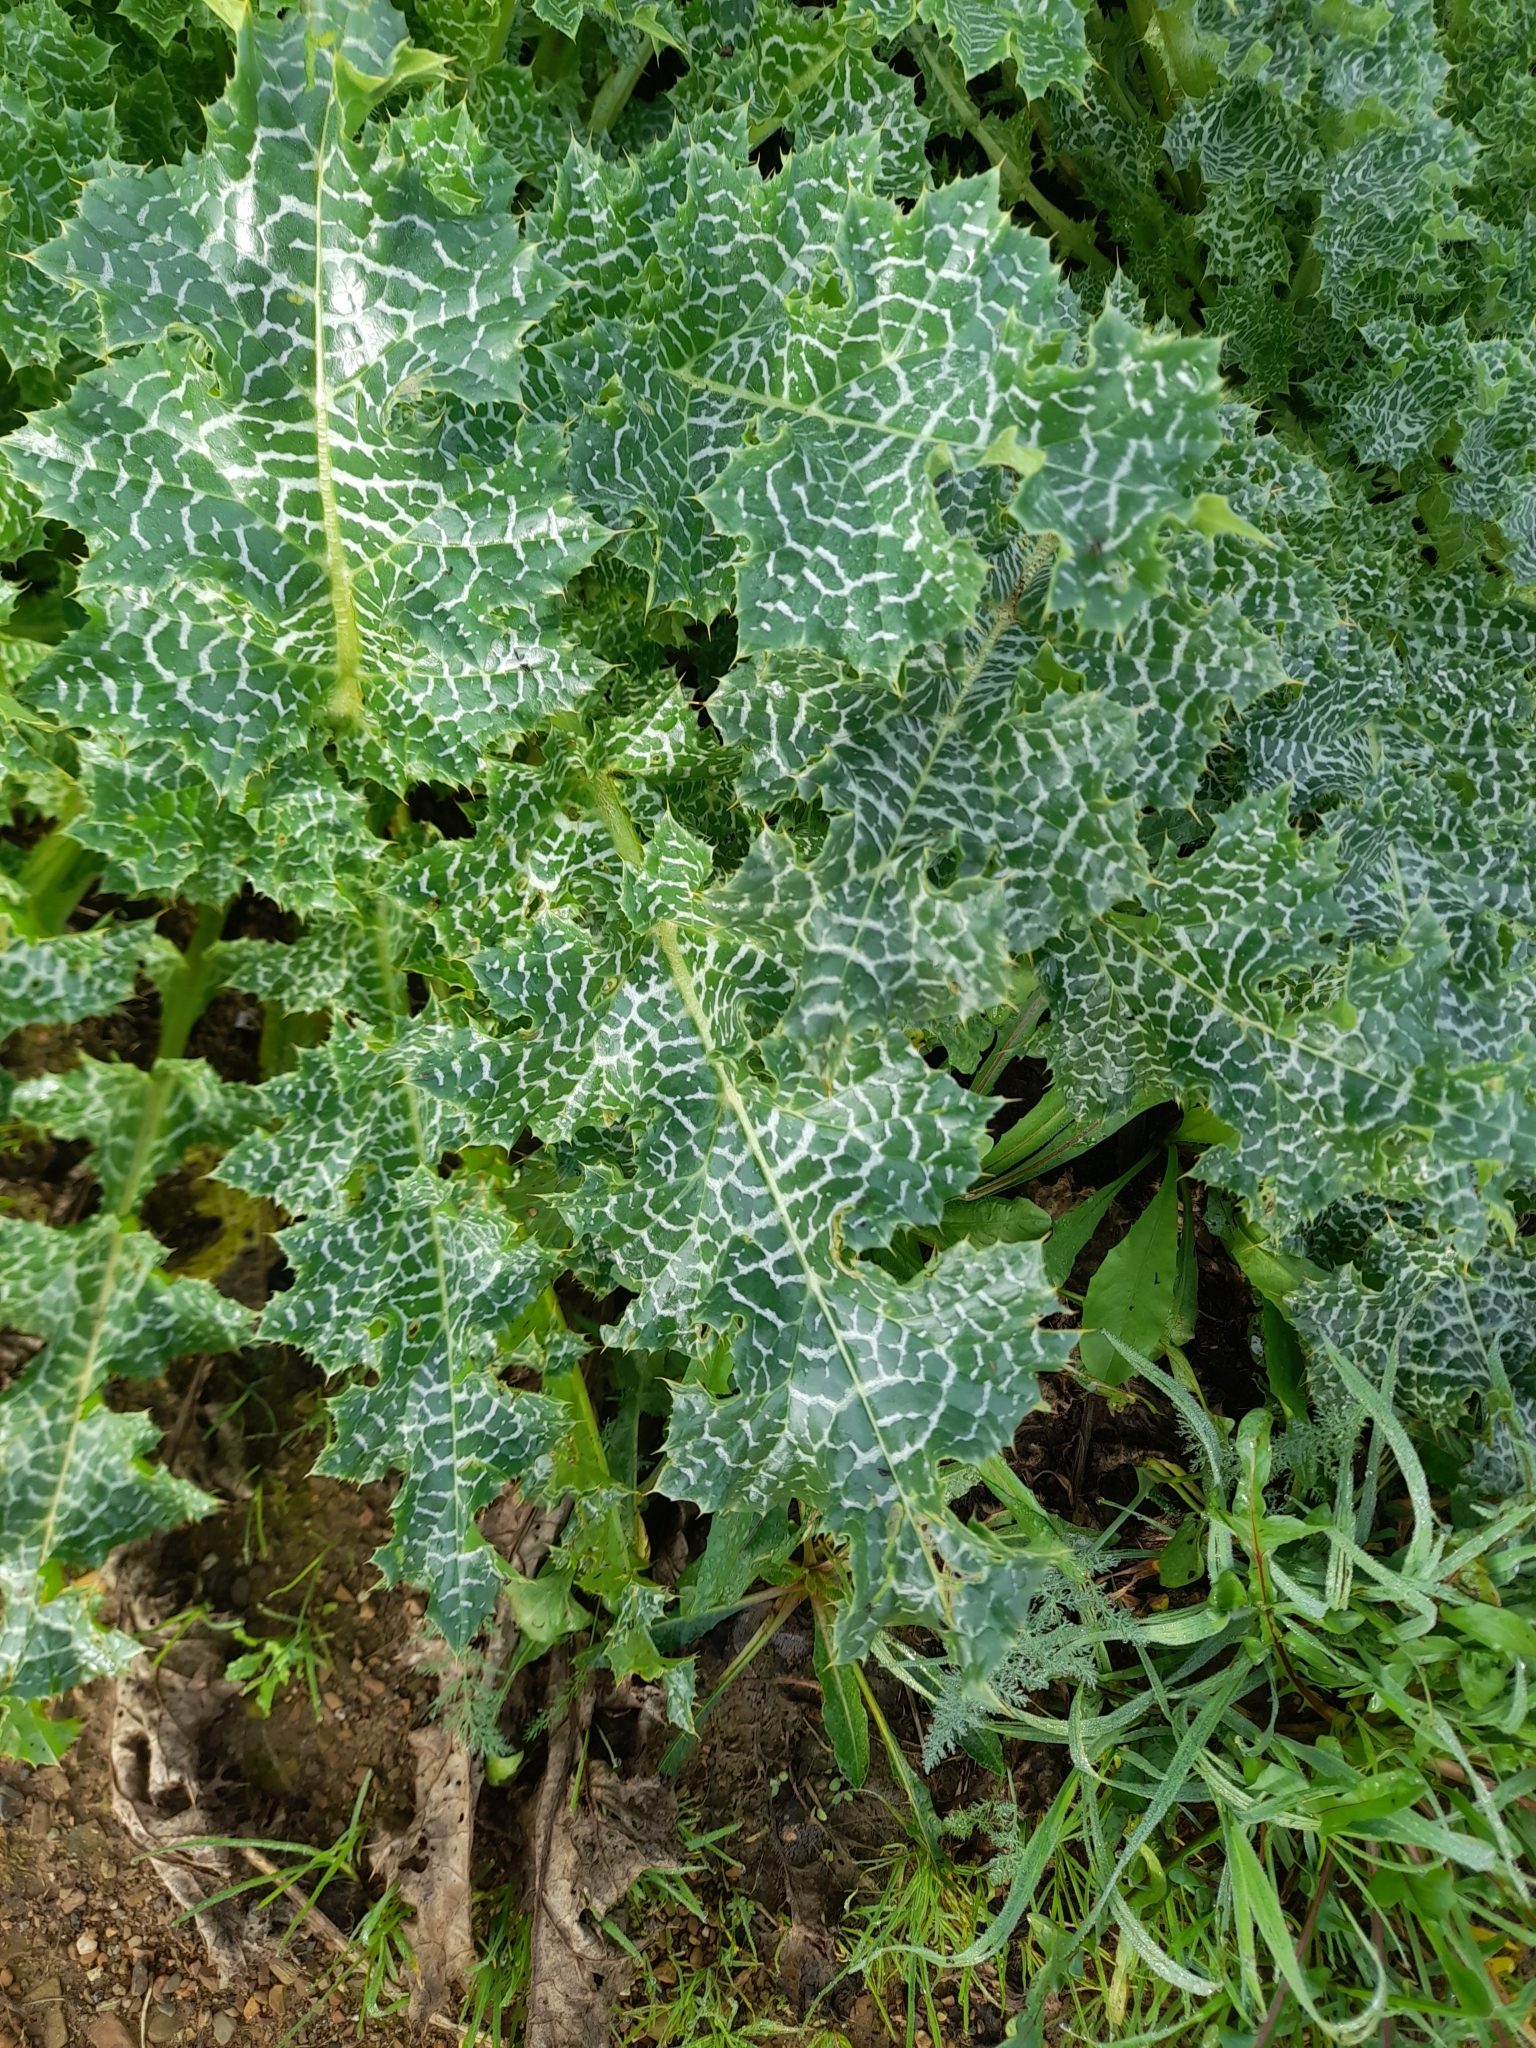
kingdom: Plantae
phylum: Tracheophyta
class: Magnoliopsida
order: Asterales
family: Asteraceae
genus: Silybum
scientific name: Silybum marianum
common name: Milk thistle
